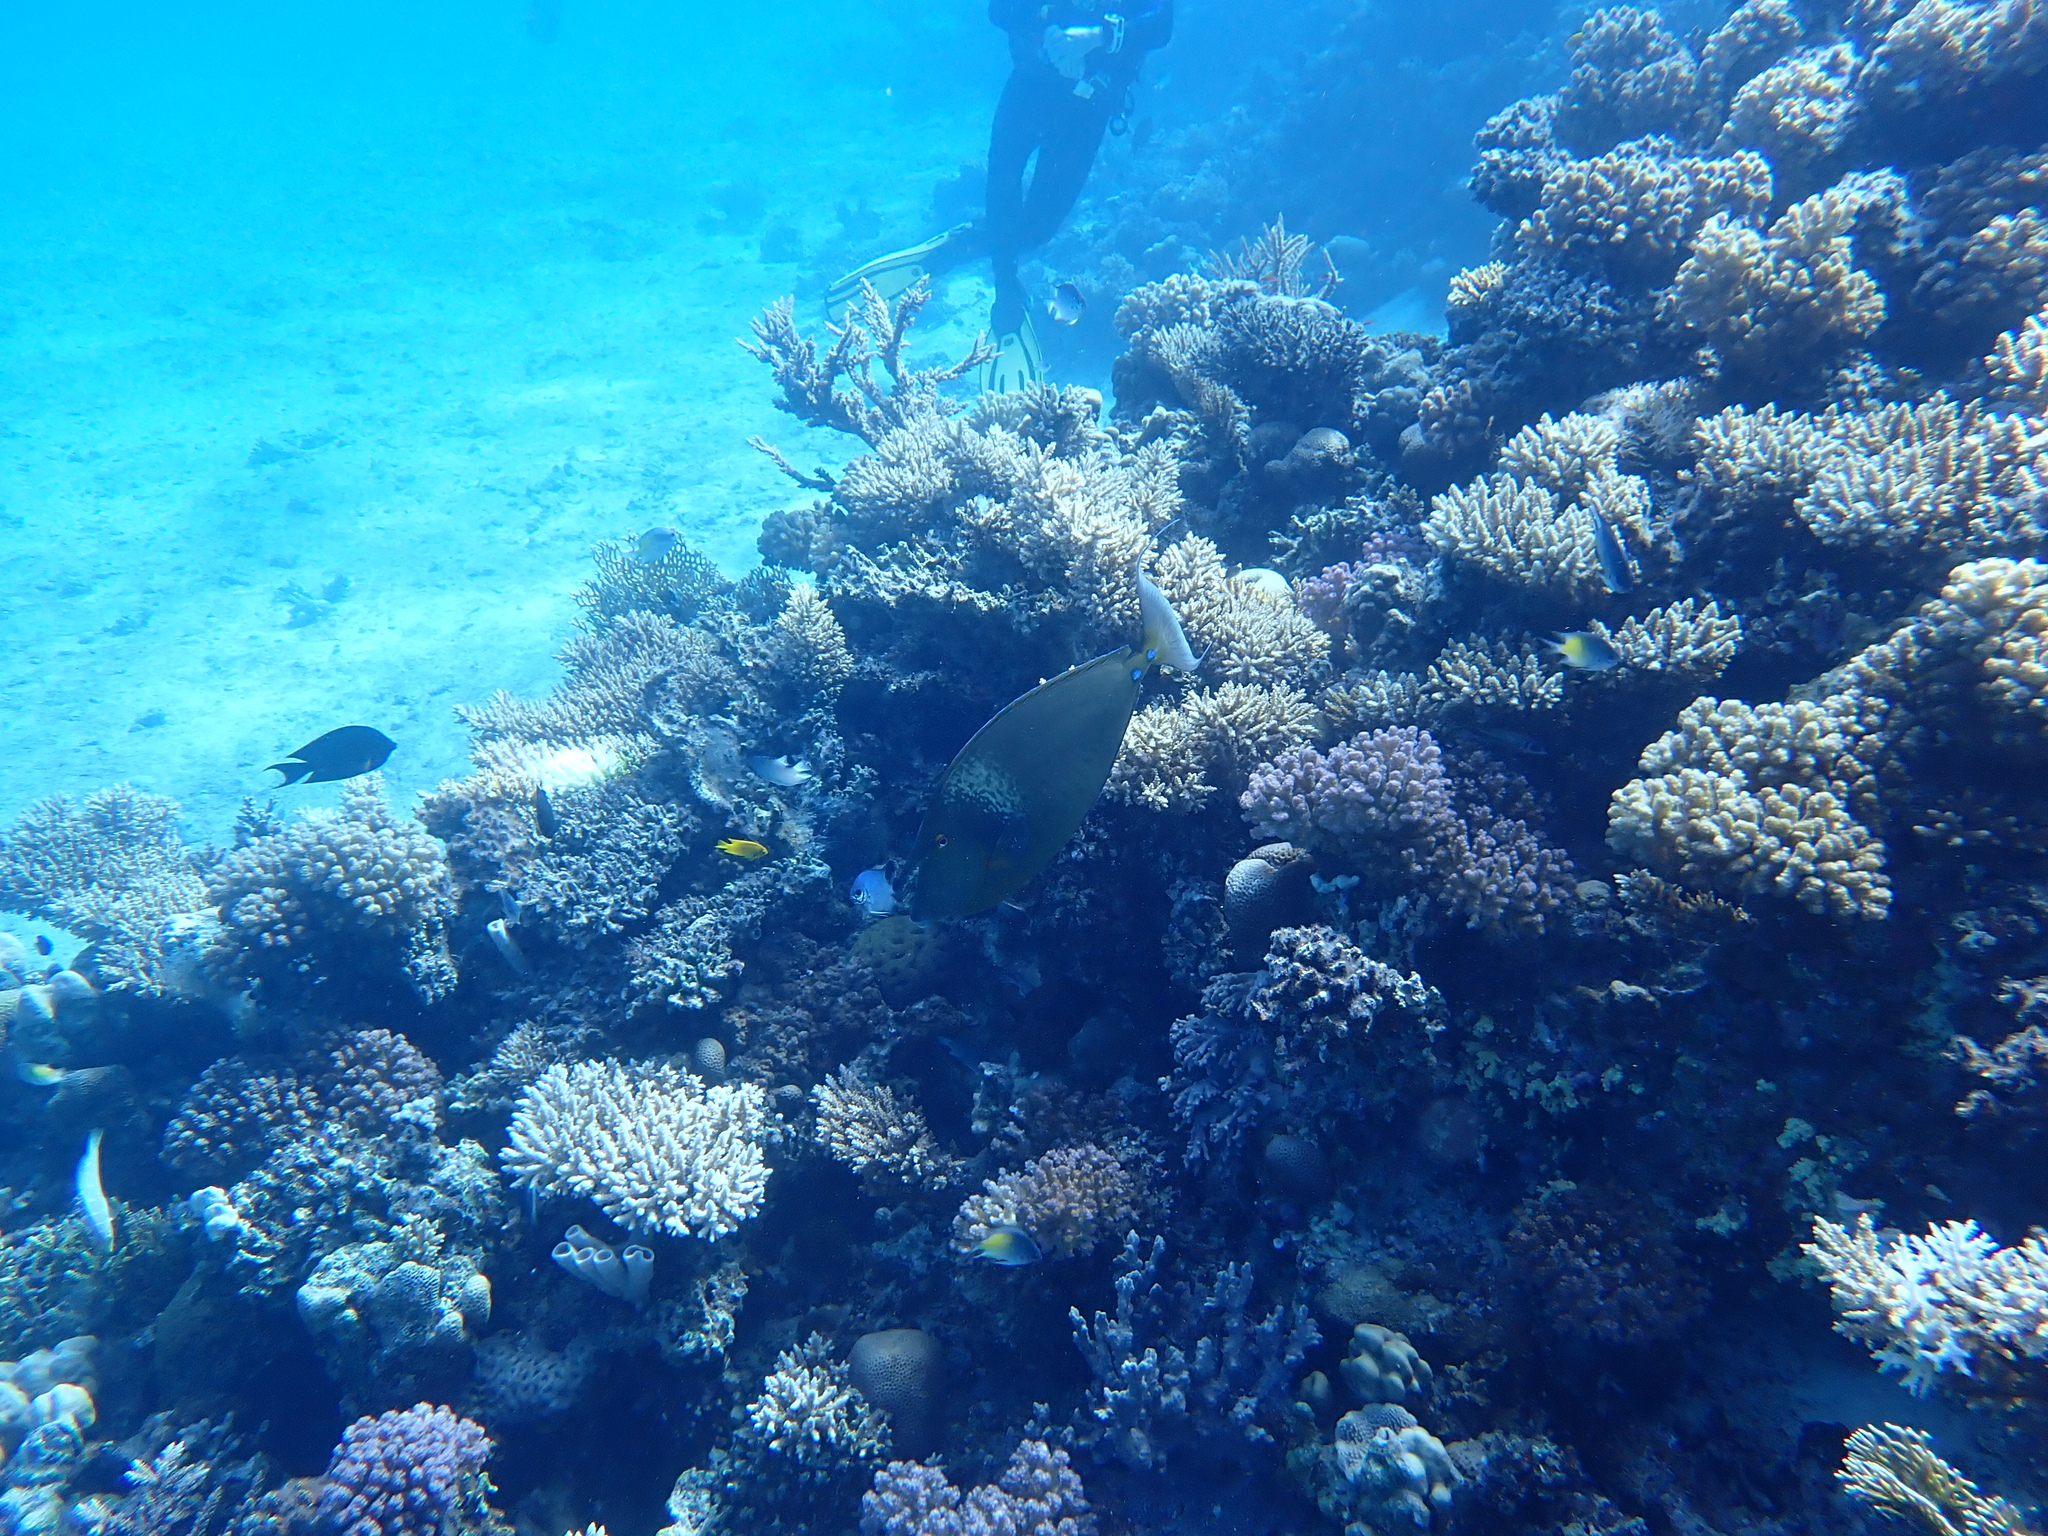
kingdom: Animalia
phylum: Chordata
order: Perciformes
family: Acanthuridae
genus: Naso
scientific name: Naso unicornis
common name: Bluespine unicornfish
